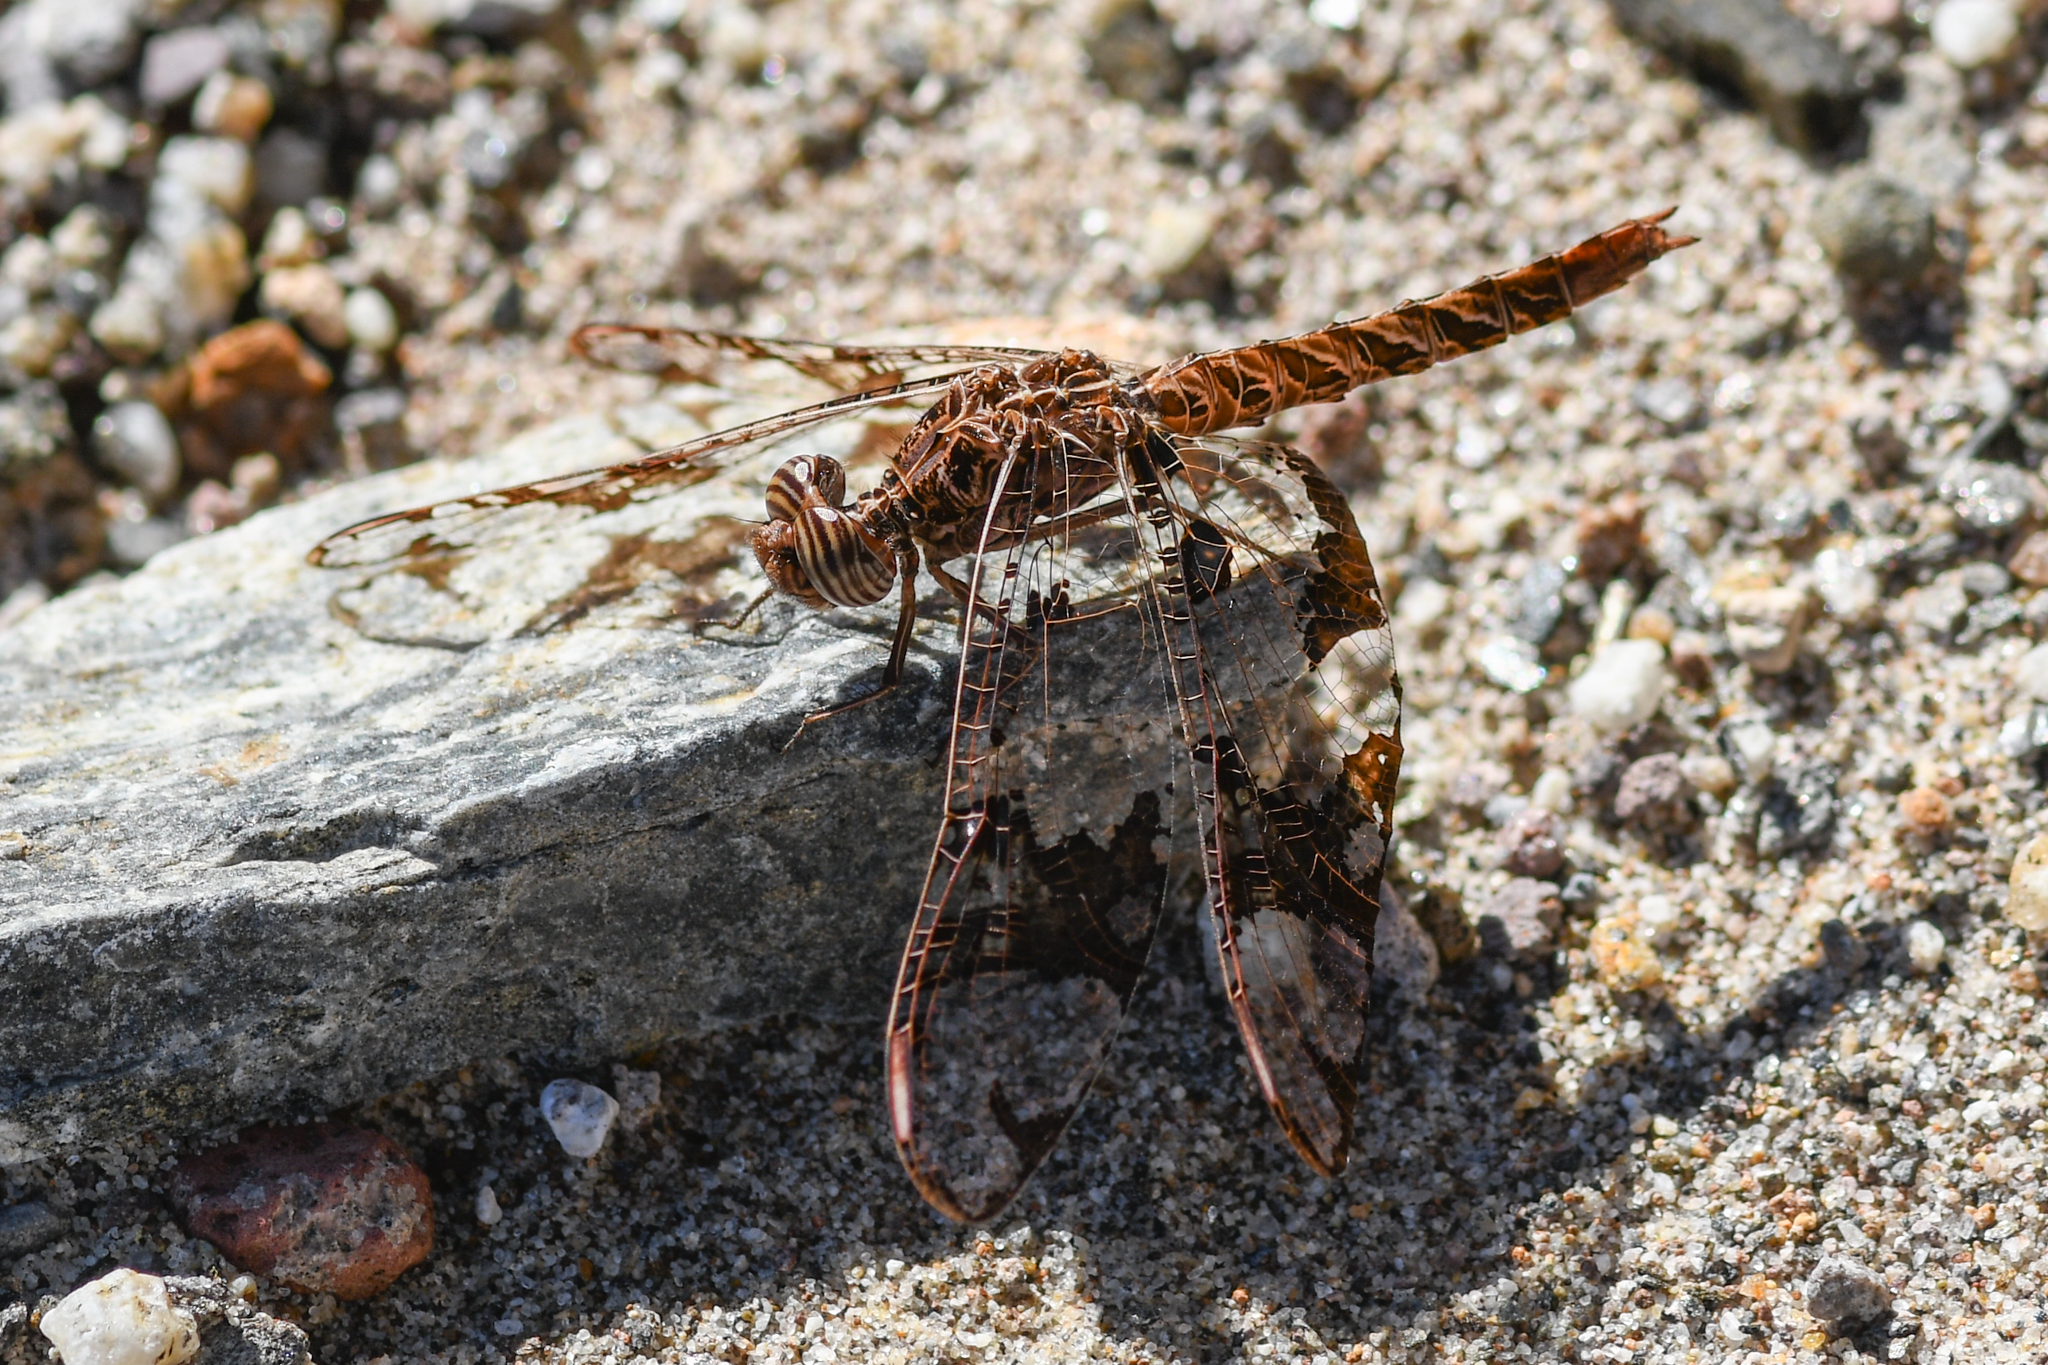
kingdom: Animalia
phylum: Arthropoda
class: Insecta
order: Odonata
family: Libellulidae
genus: Pseudoleon
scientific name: Pseudoleon superbus
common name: Filigree skimmer
